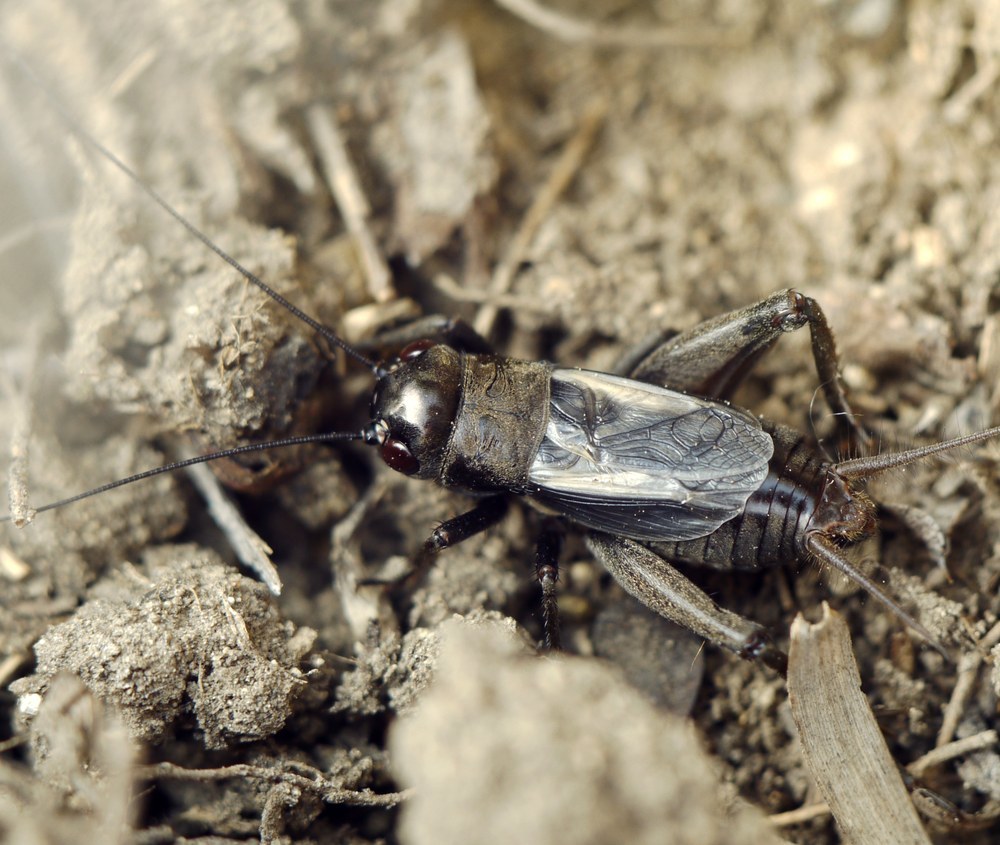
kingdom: Animalia
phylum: Arthropoda
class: Insecta
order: Orthoptera
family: Gryllidae
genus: Melanogryllus
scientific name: Melanogryllus desertus
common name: Desert cricket
